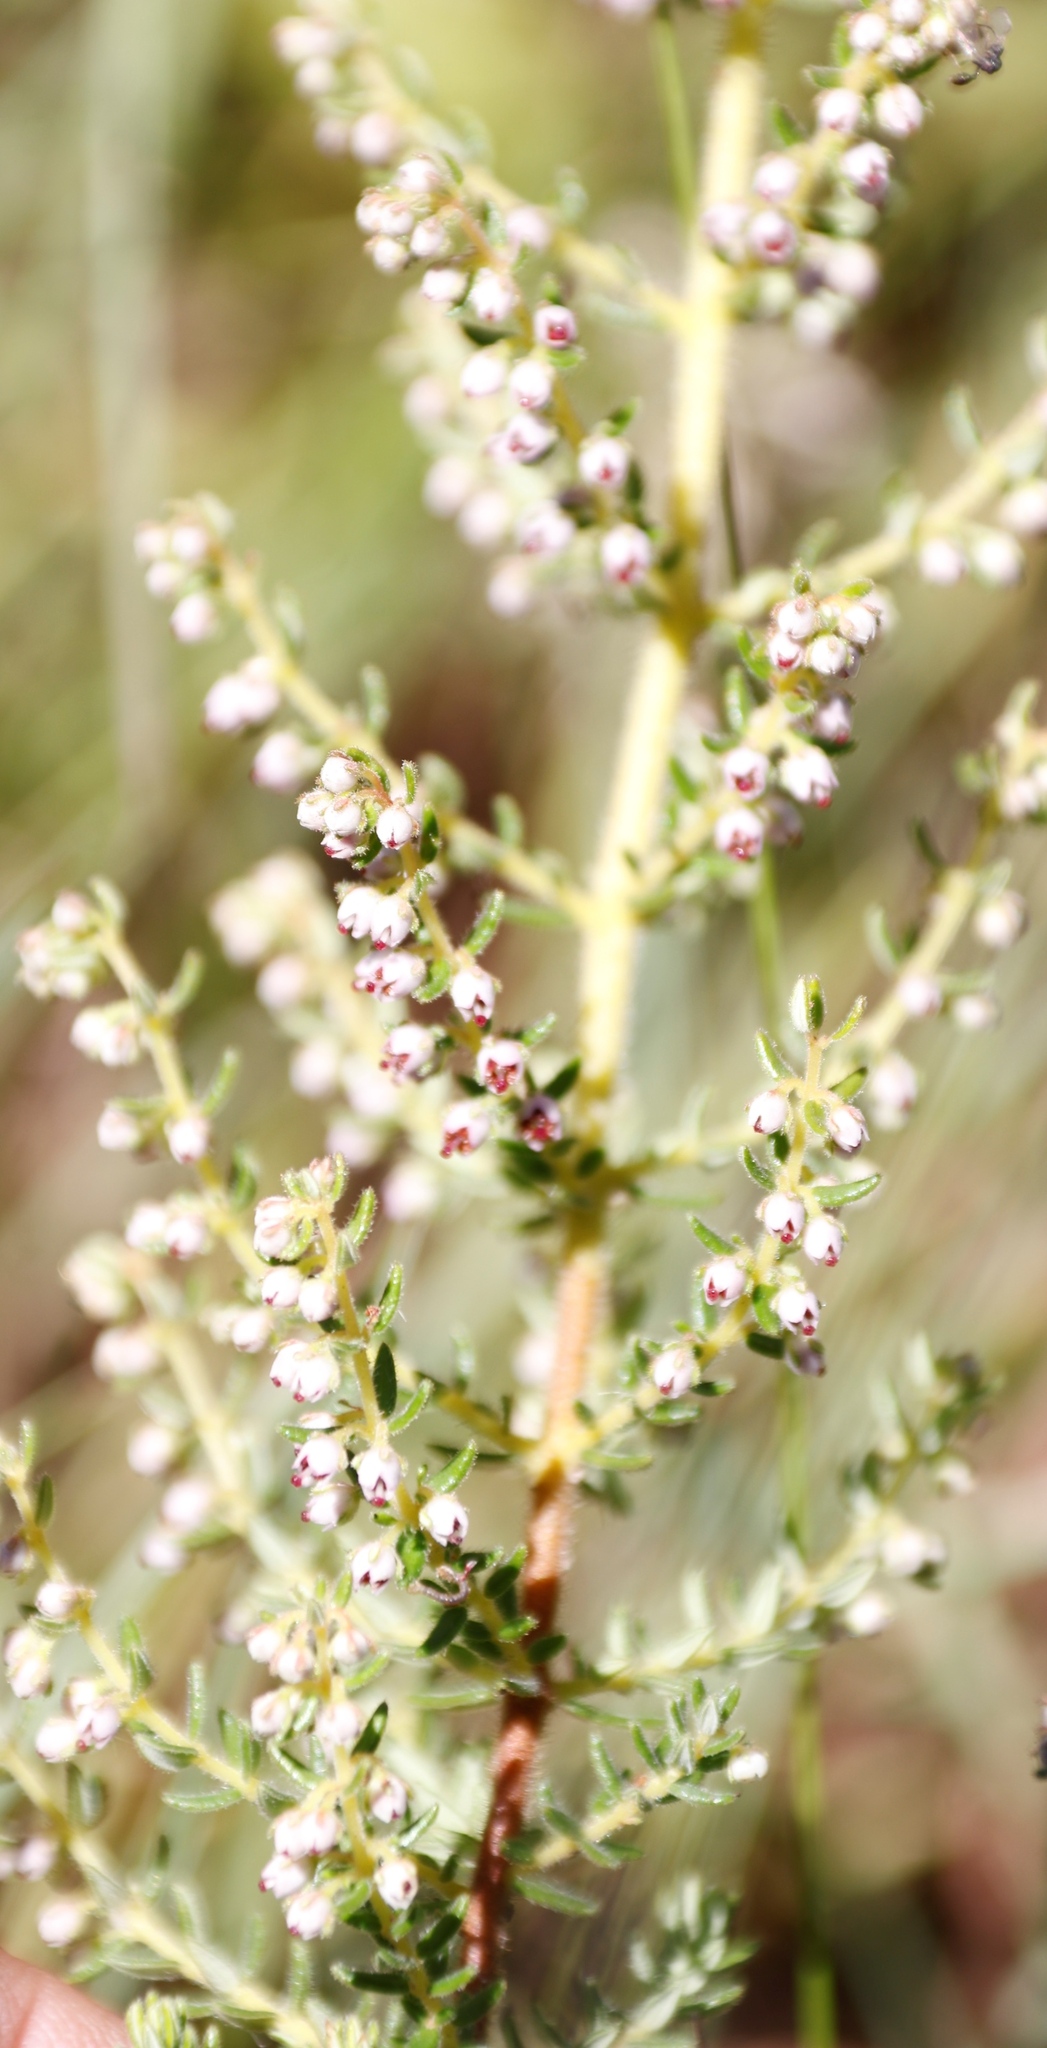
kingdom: Plantae
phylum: Tracheophyta
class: Magnoliopsida
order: Ericales
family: Ericaceae
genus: Erica
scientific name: Erica woodii
